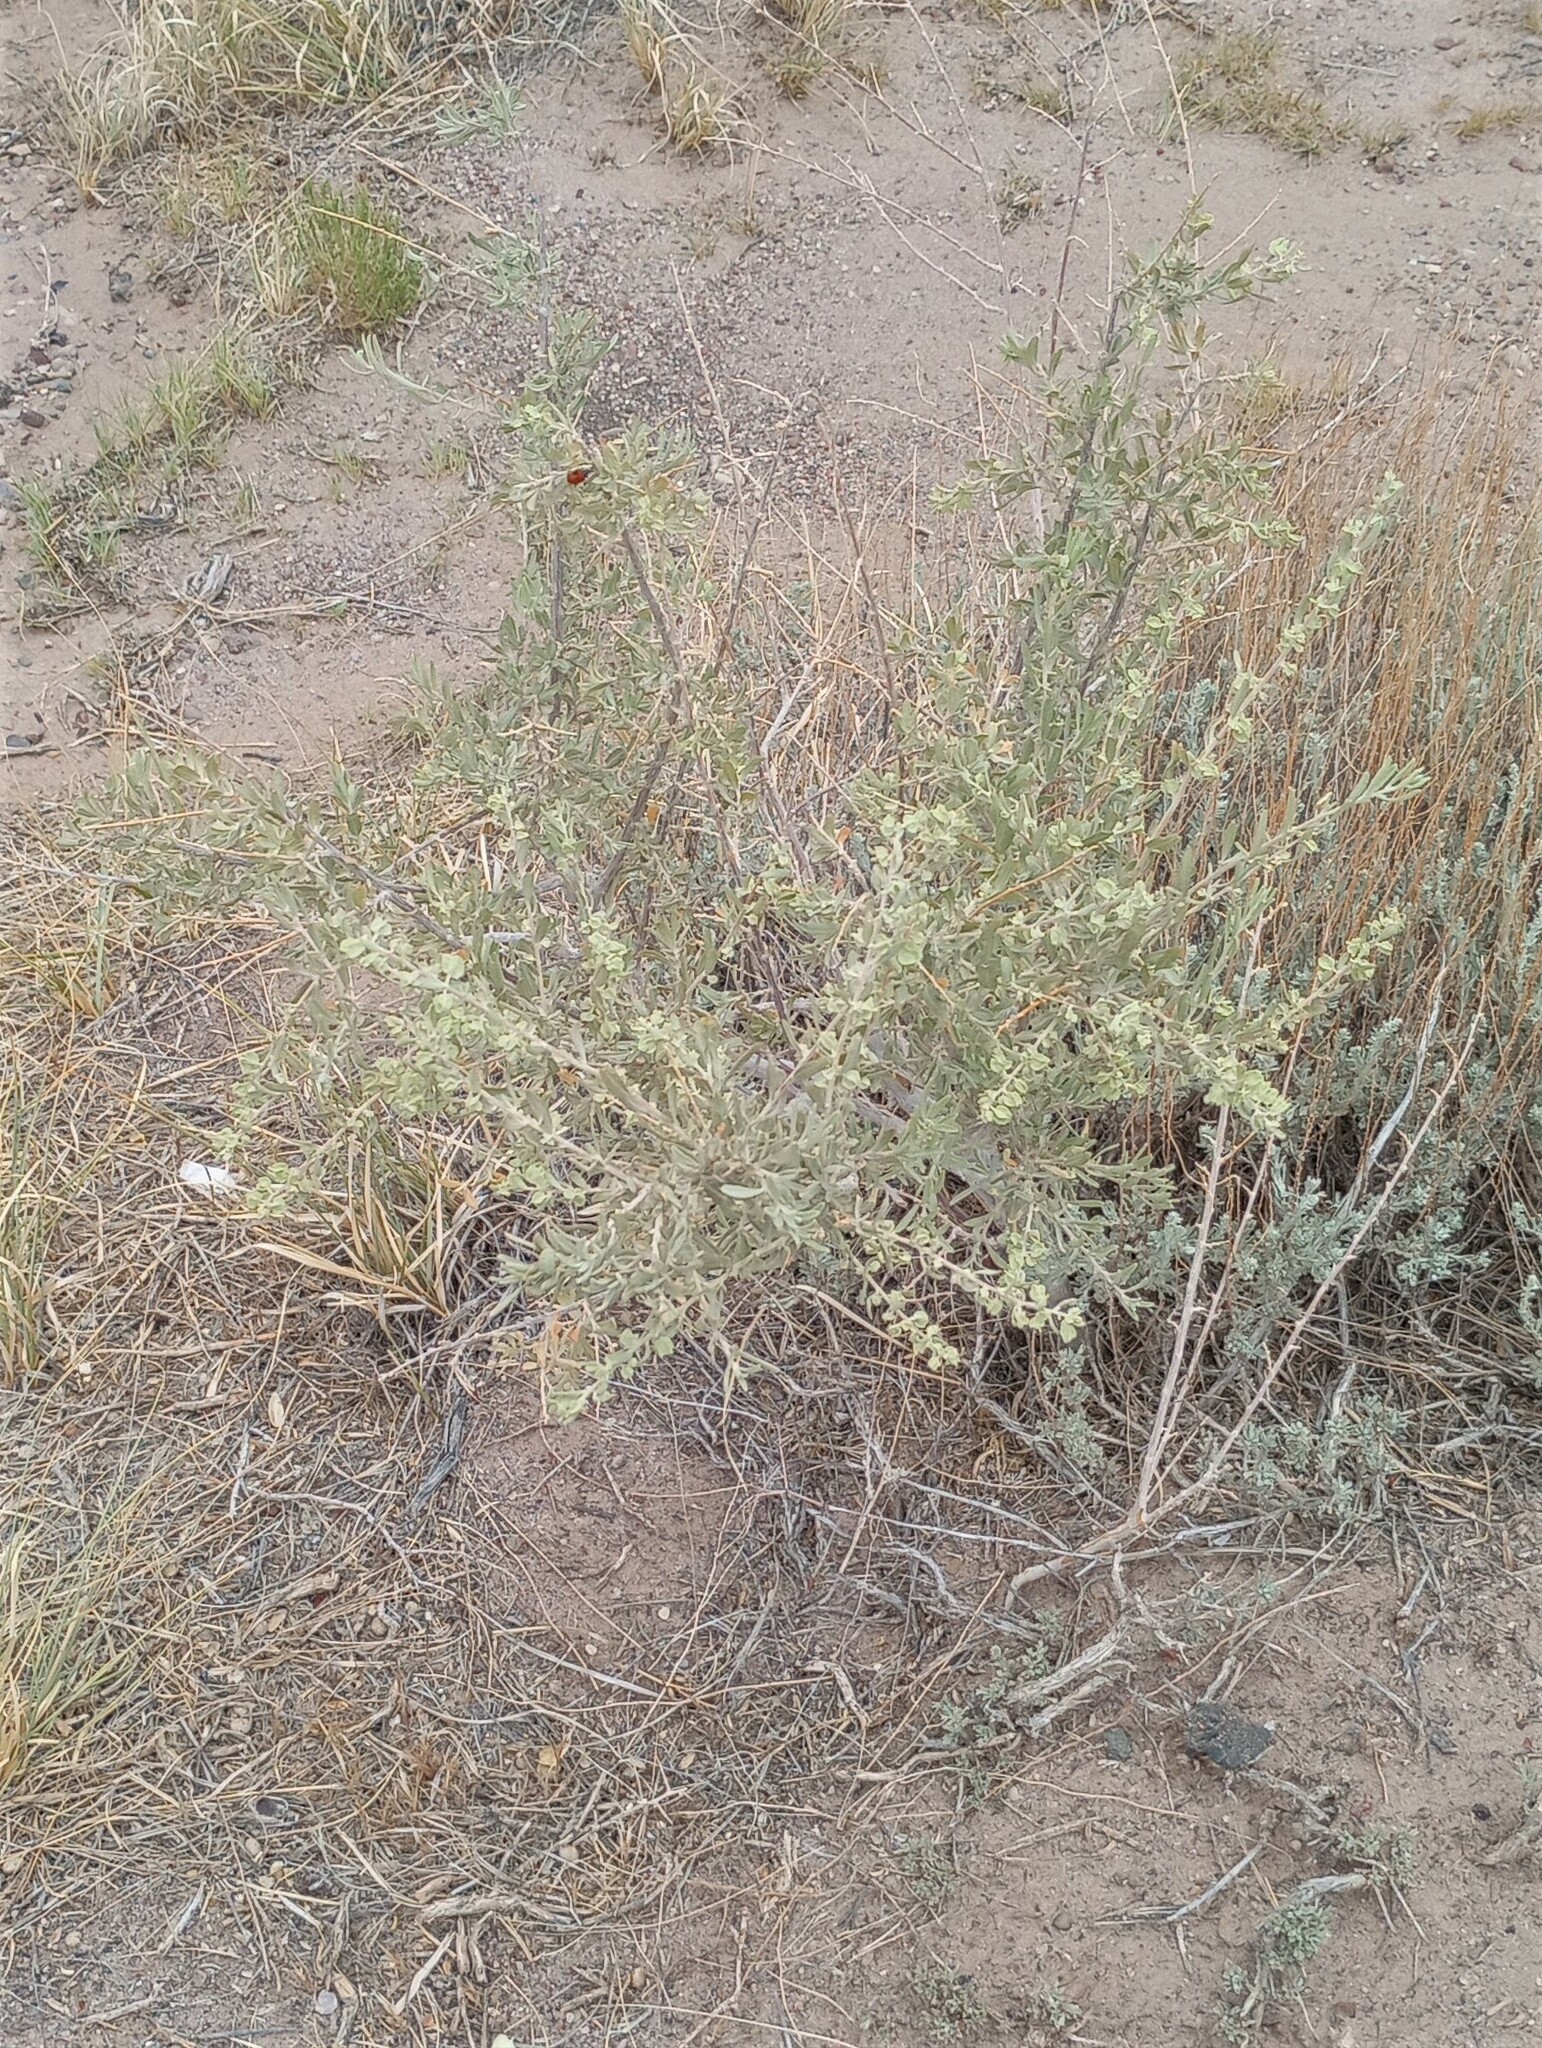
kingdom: Plantae
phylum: Tracheophyta
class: Magnoliopsida
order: Caryophyllales
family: Amaranthaceae
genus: Atriplex
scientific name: Atriplex canescens
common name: Four-wing saltbush
